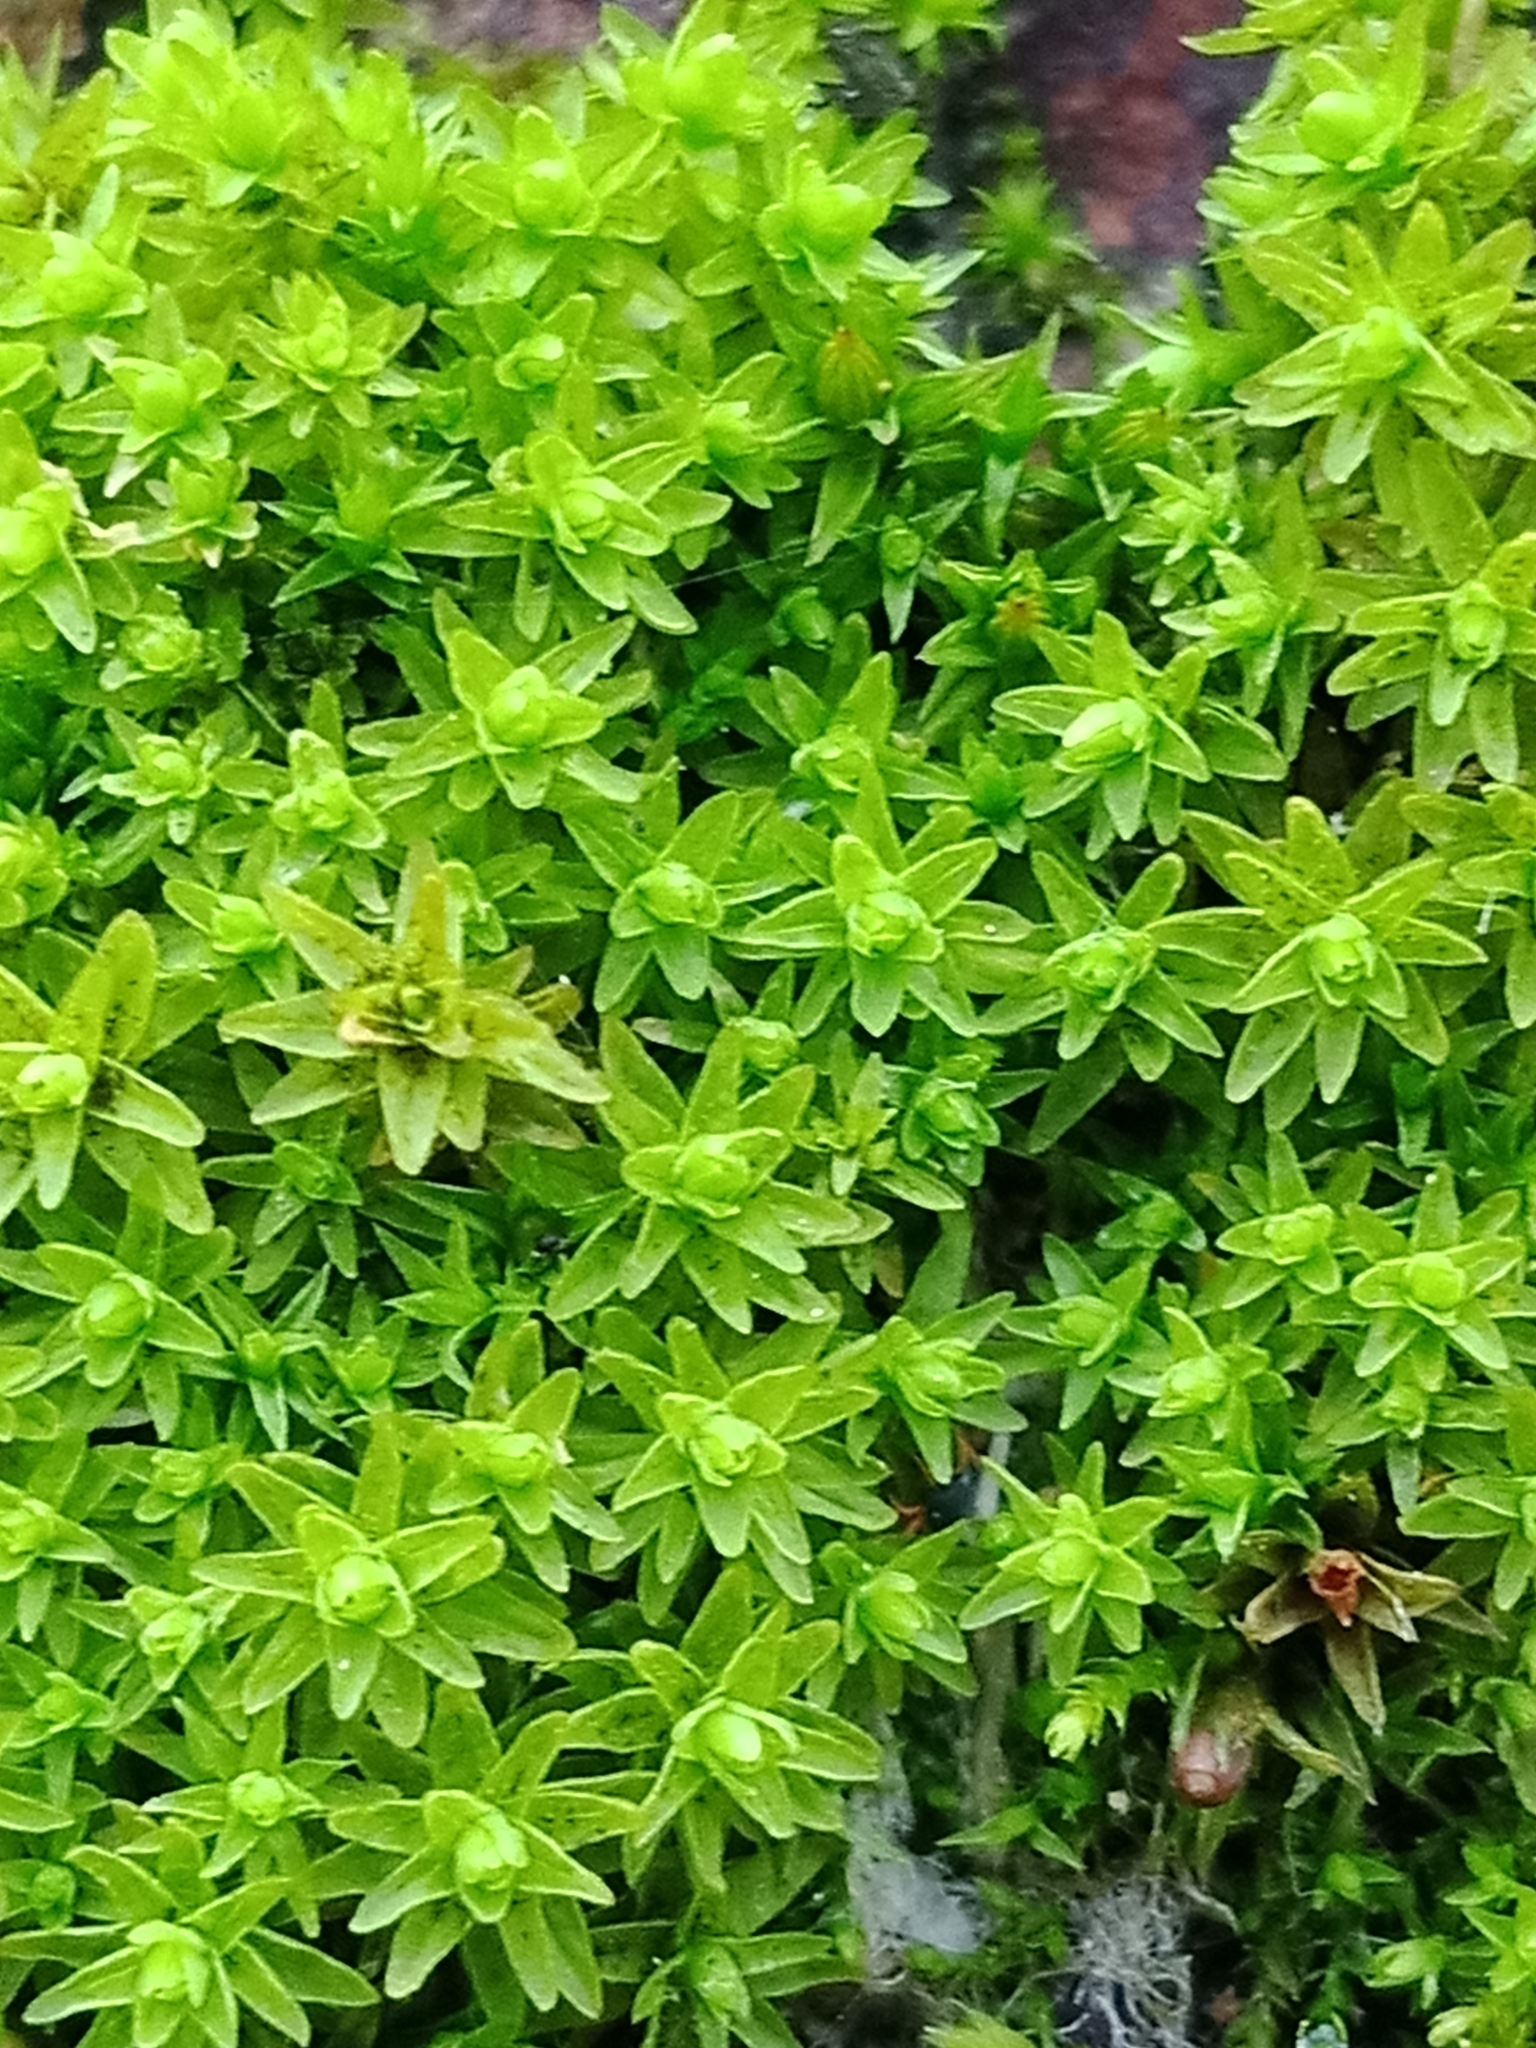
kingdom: Plantae
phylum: Bryophyta
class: Bryopsida
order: Orthotrichales
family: Orthotrichaceae
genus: Nyholmiella
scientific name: Nyholmiella obtusifolia
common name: Blunt-leaved bristle-moss
